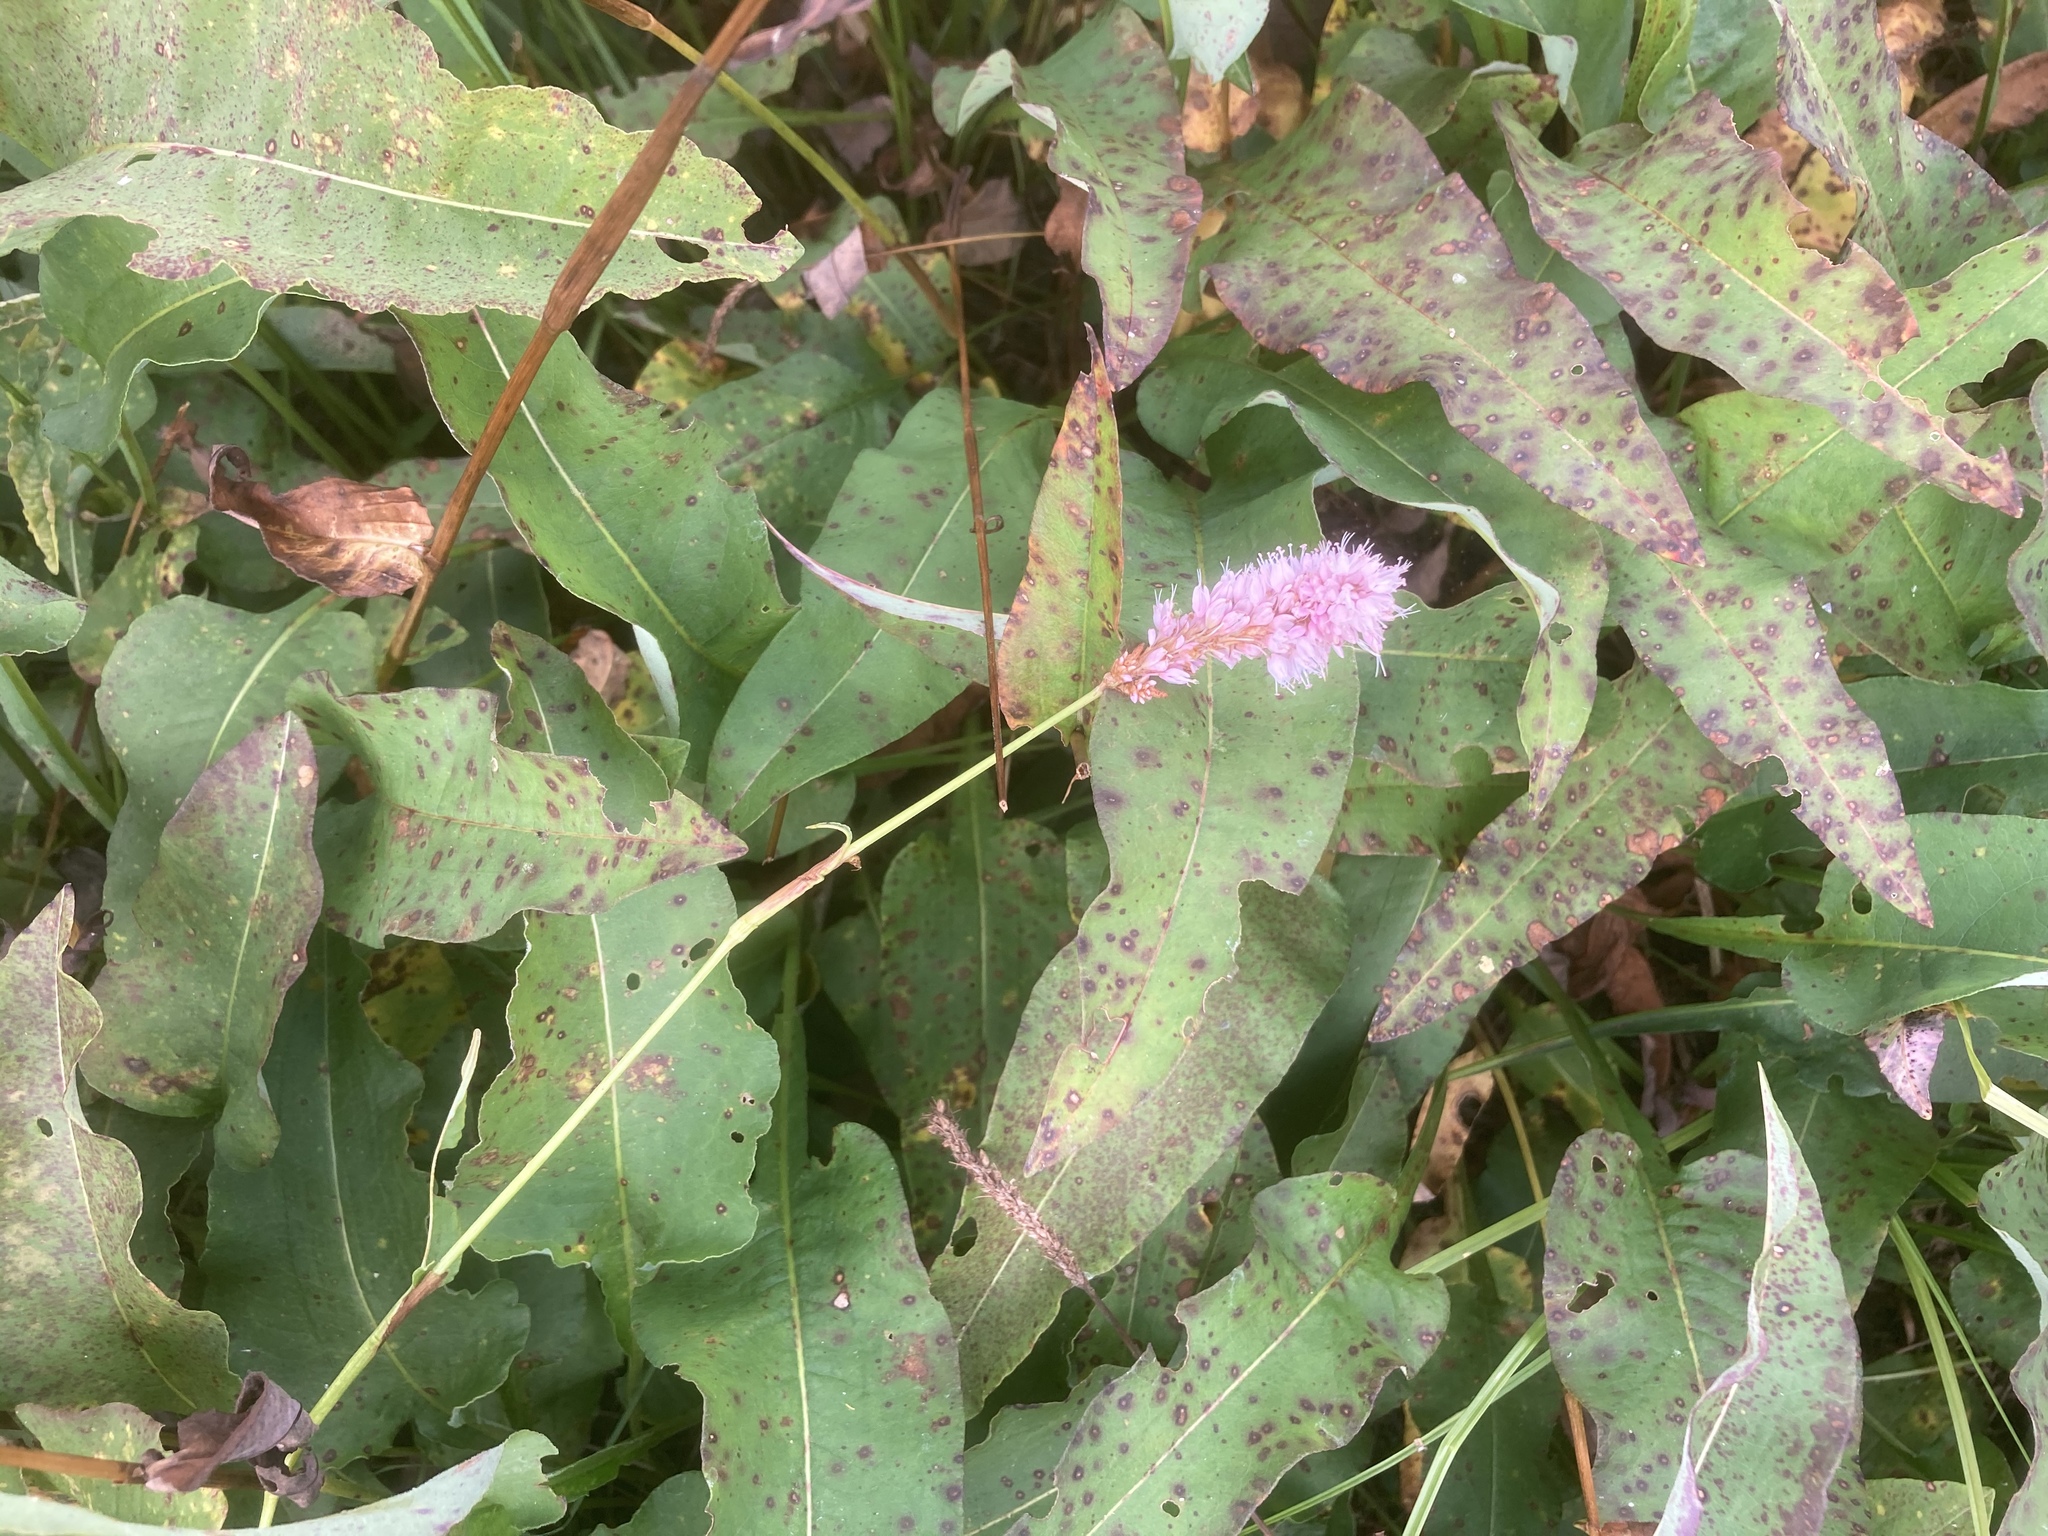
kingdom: Plantae
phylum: Tracheophyta
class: Magnoliopsida
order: Caryophyllales
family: Polygonaceae
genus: Bistorta
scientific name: Bistorta officinalis
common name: Common bistort
